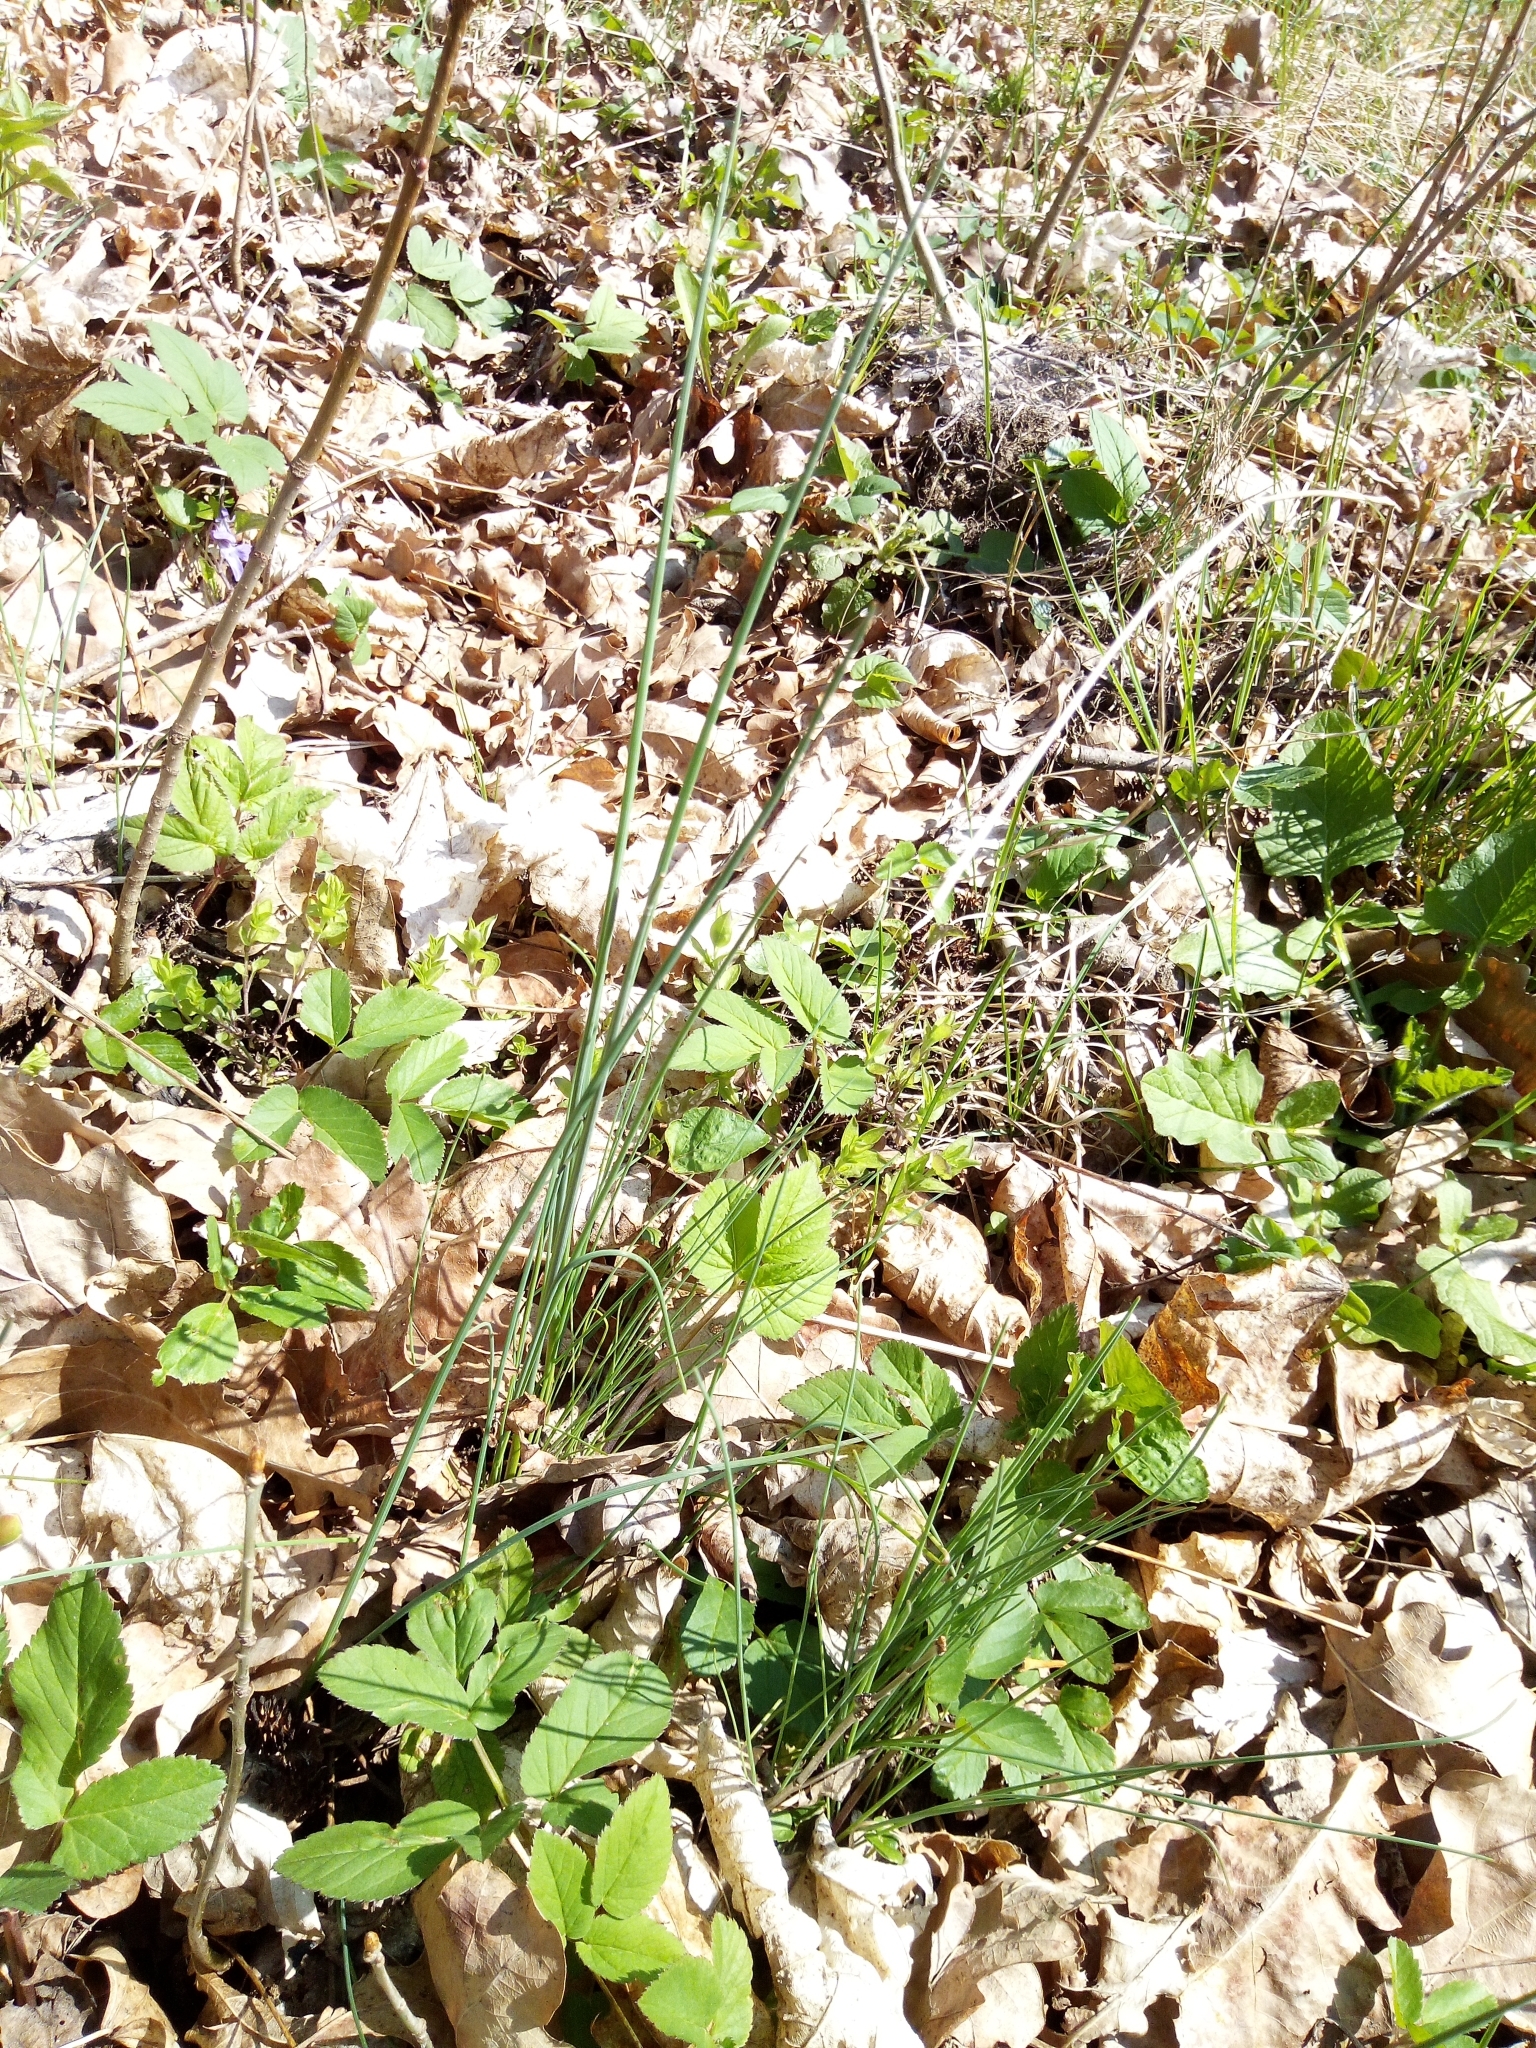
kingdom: Plantae
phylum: Tracheophyta
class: Liliopsida
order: Asparagales
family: Amaryllidaceae
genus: Allium
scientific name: Allium vineale
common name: Crow garlic
